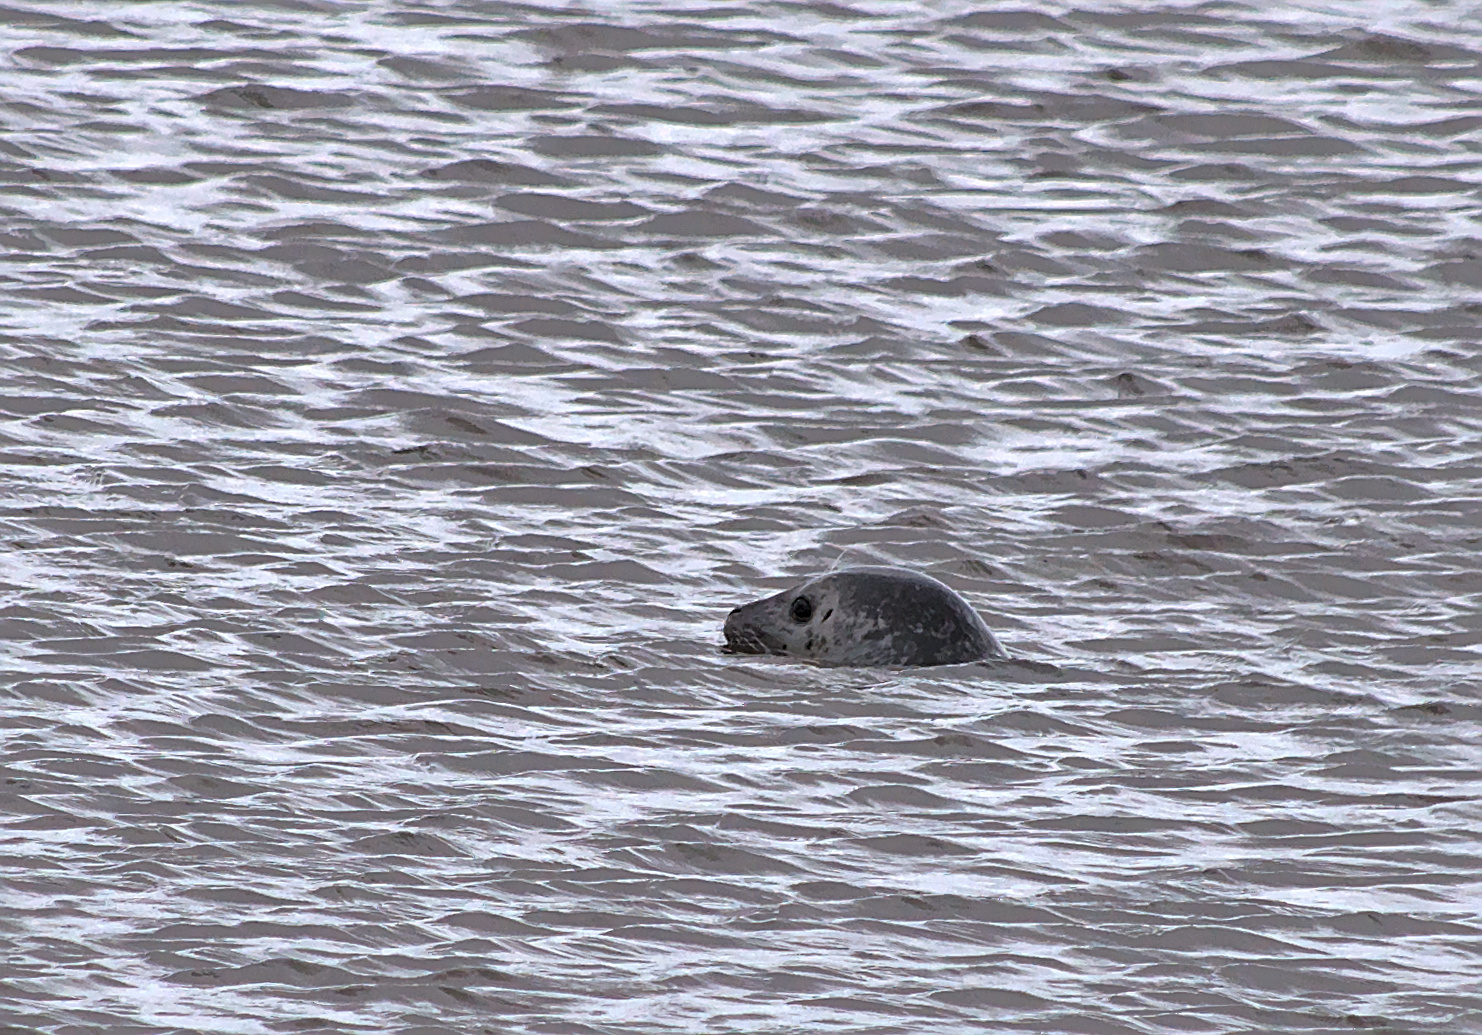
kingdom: Animalia
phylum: Chordata
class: Mammalia
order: Carnivora
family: Phocidae
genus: Phoca
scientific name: Phoca vitulina
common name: Harbor seal
